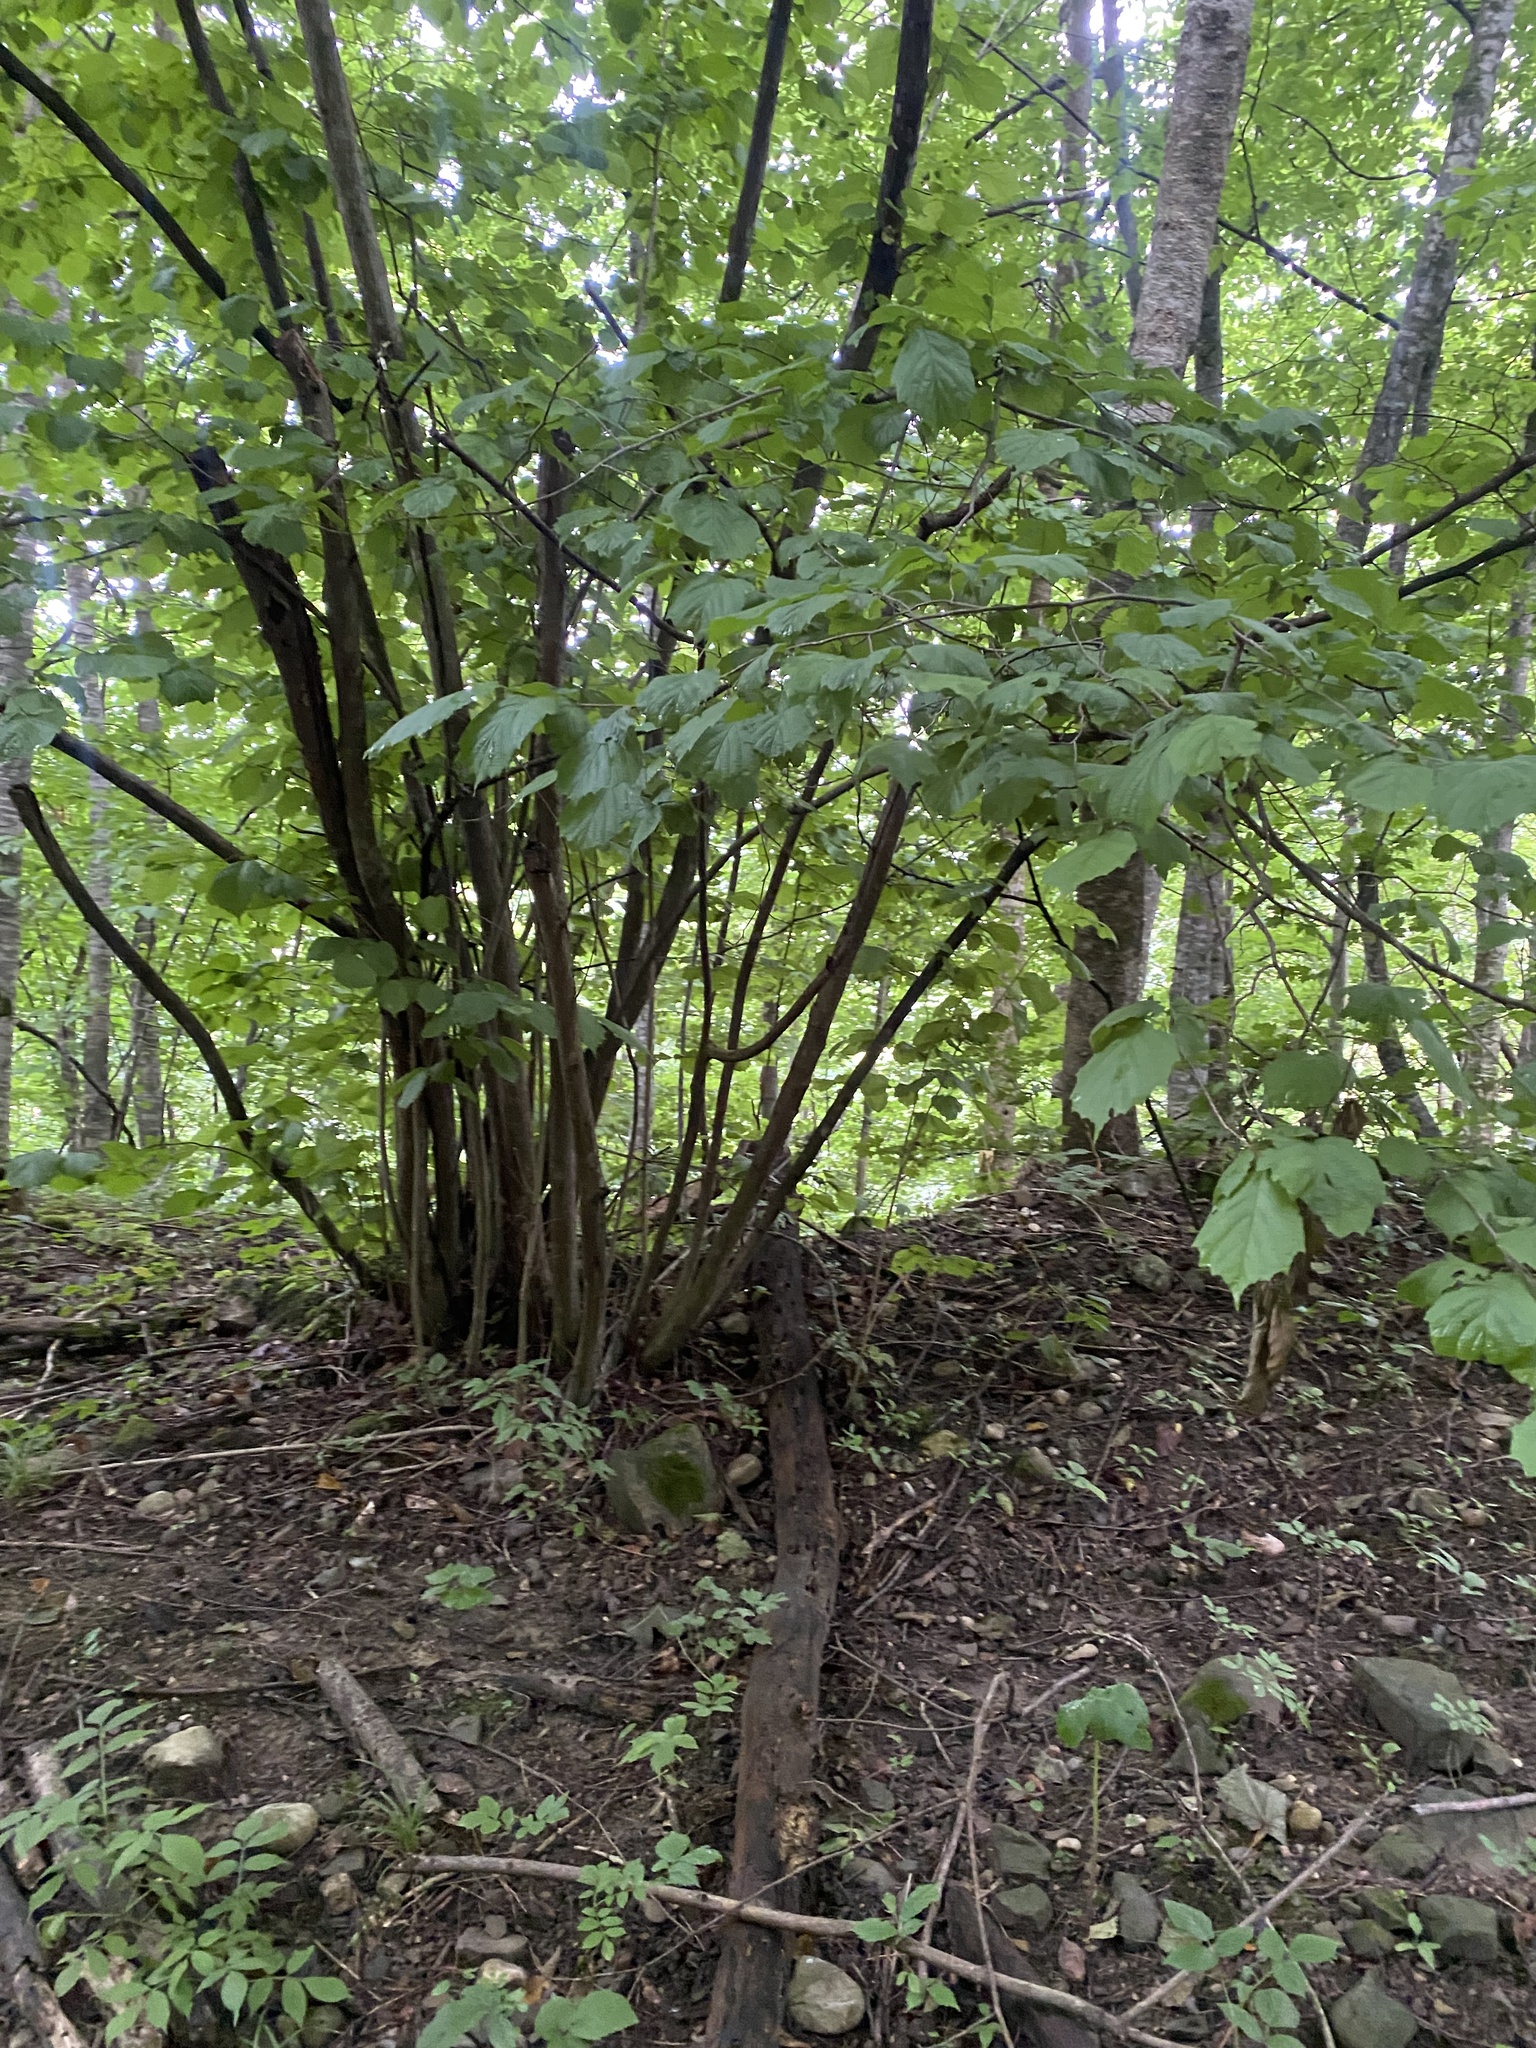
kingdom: Plantae
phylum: Tracheophyta
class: Magnoliopsida
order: Fagales
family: Betulaceae
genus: Corylus
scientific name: Corylus avellana
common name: European hazel
